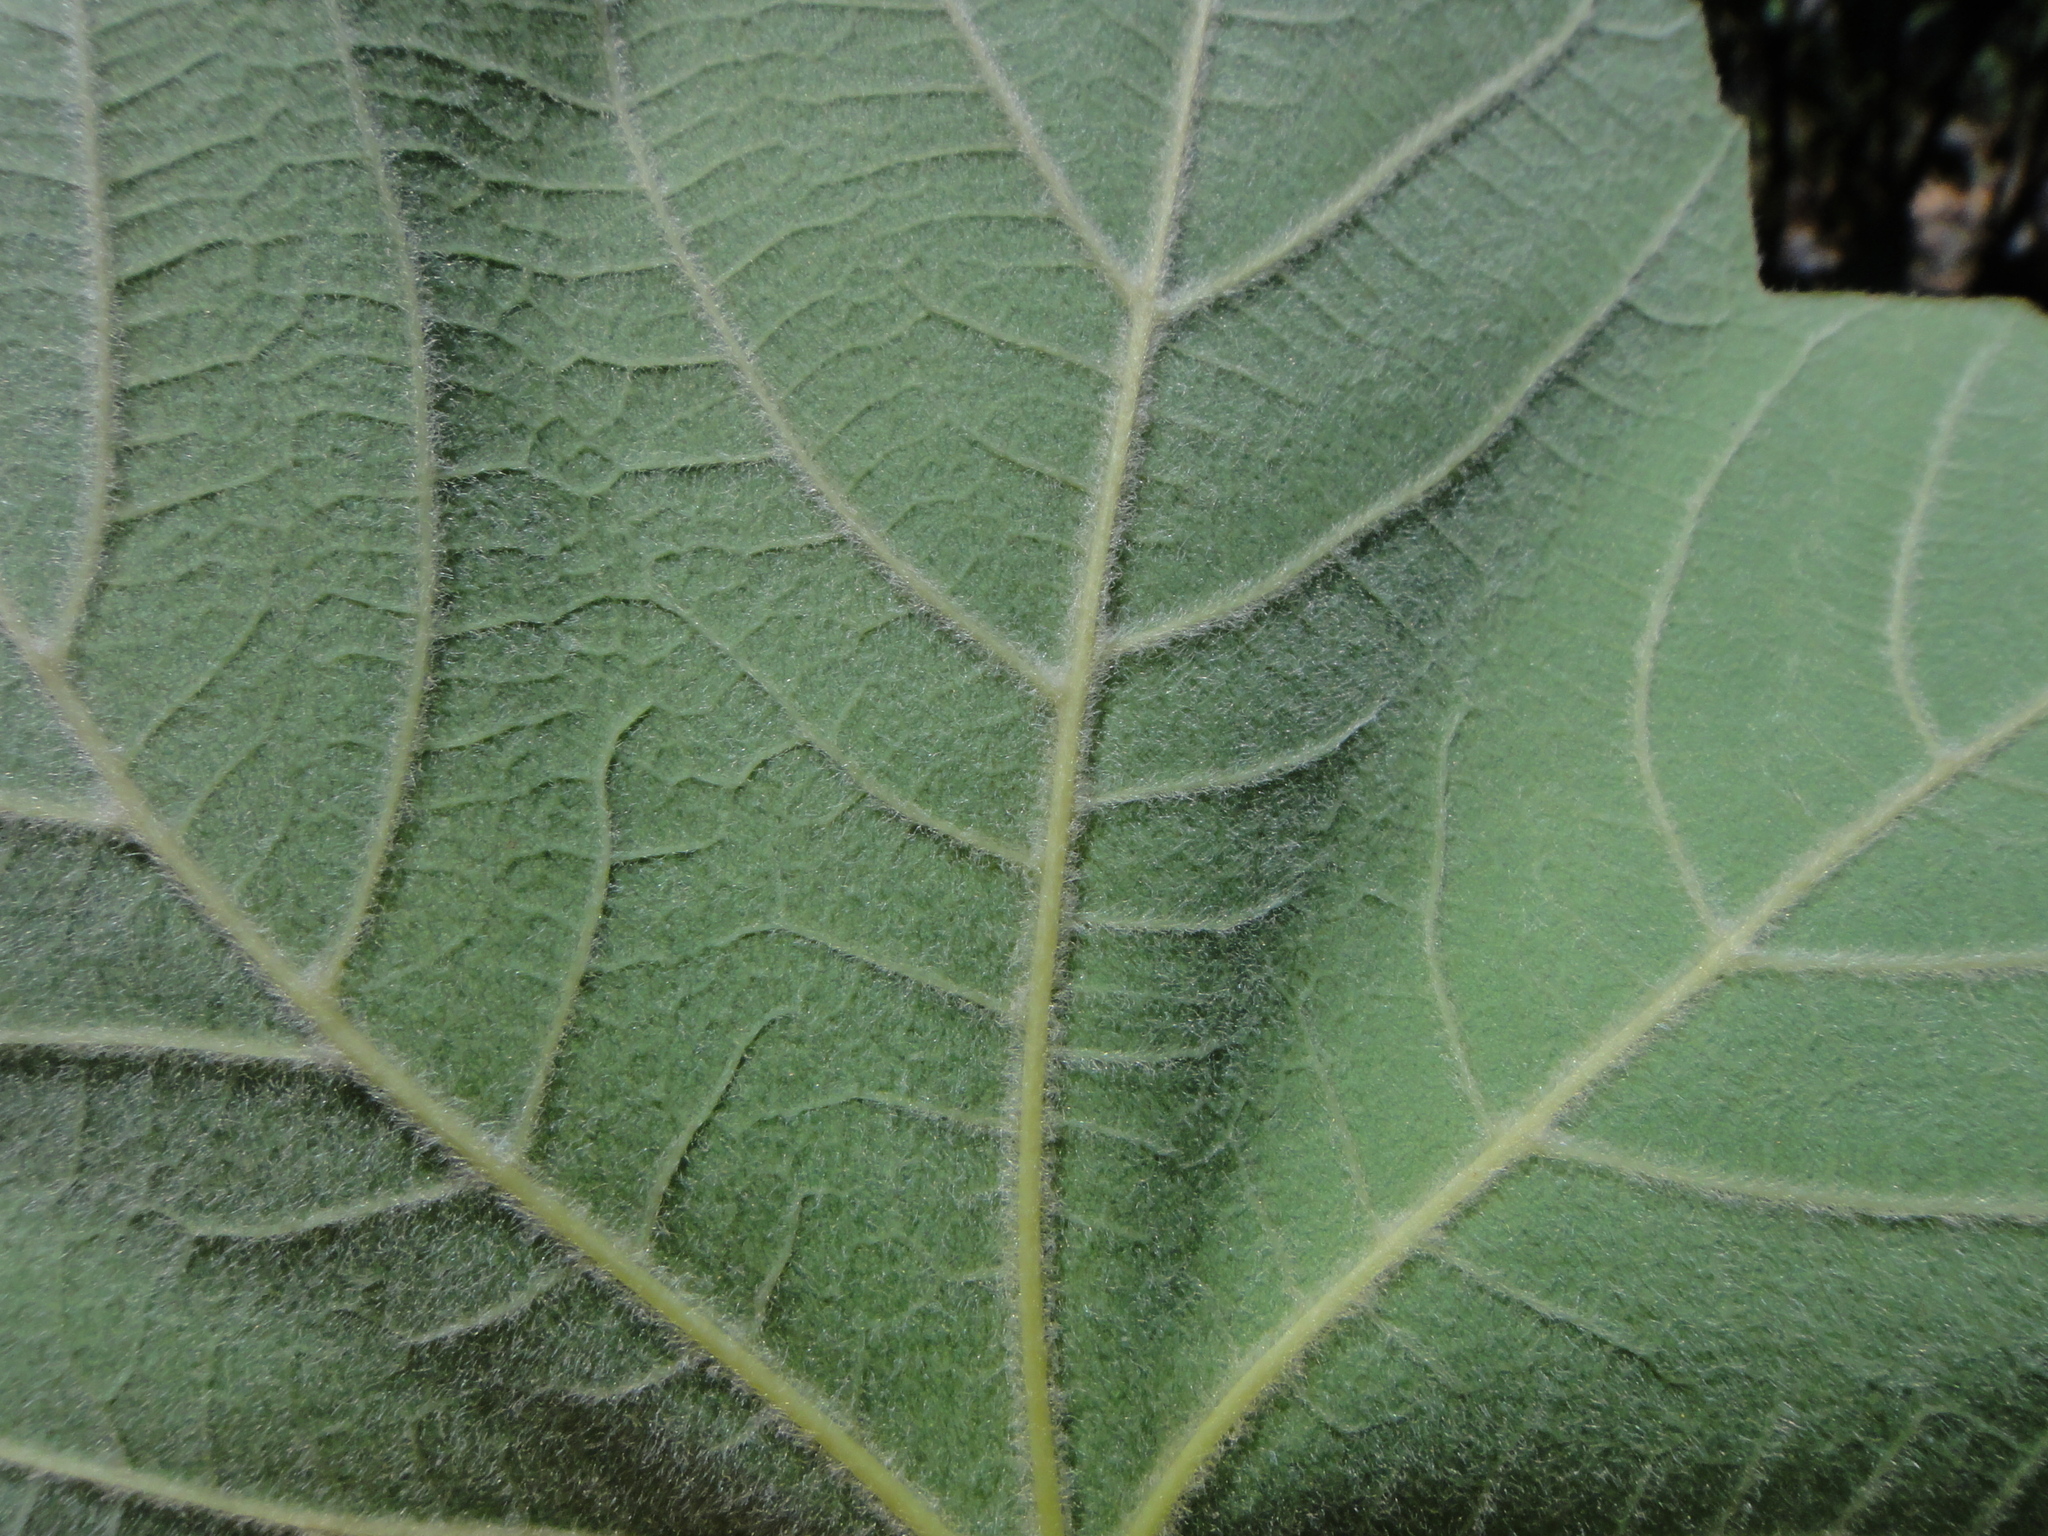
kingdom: Plantae
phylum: Tracheophyta
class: Magnoliopsida
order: Rosales
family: Moraceae
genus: Ficus
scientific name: Ficus carica
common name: Fig
